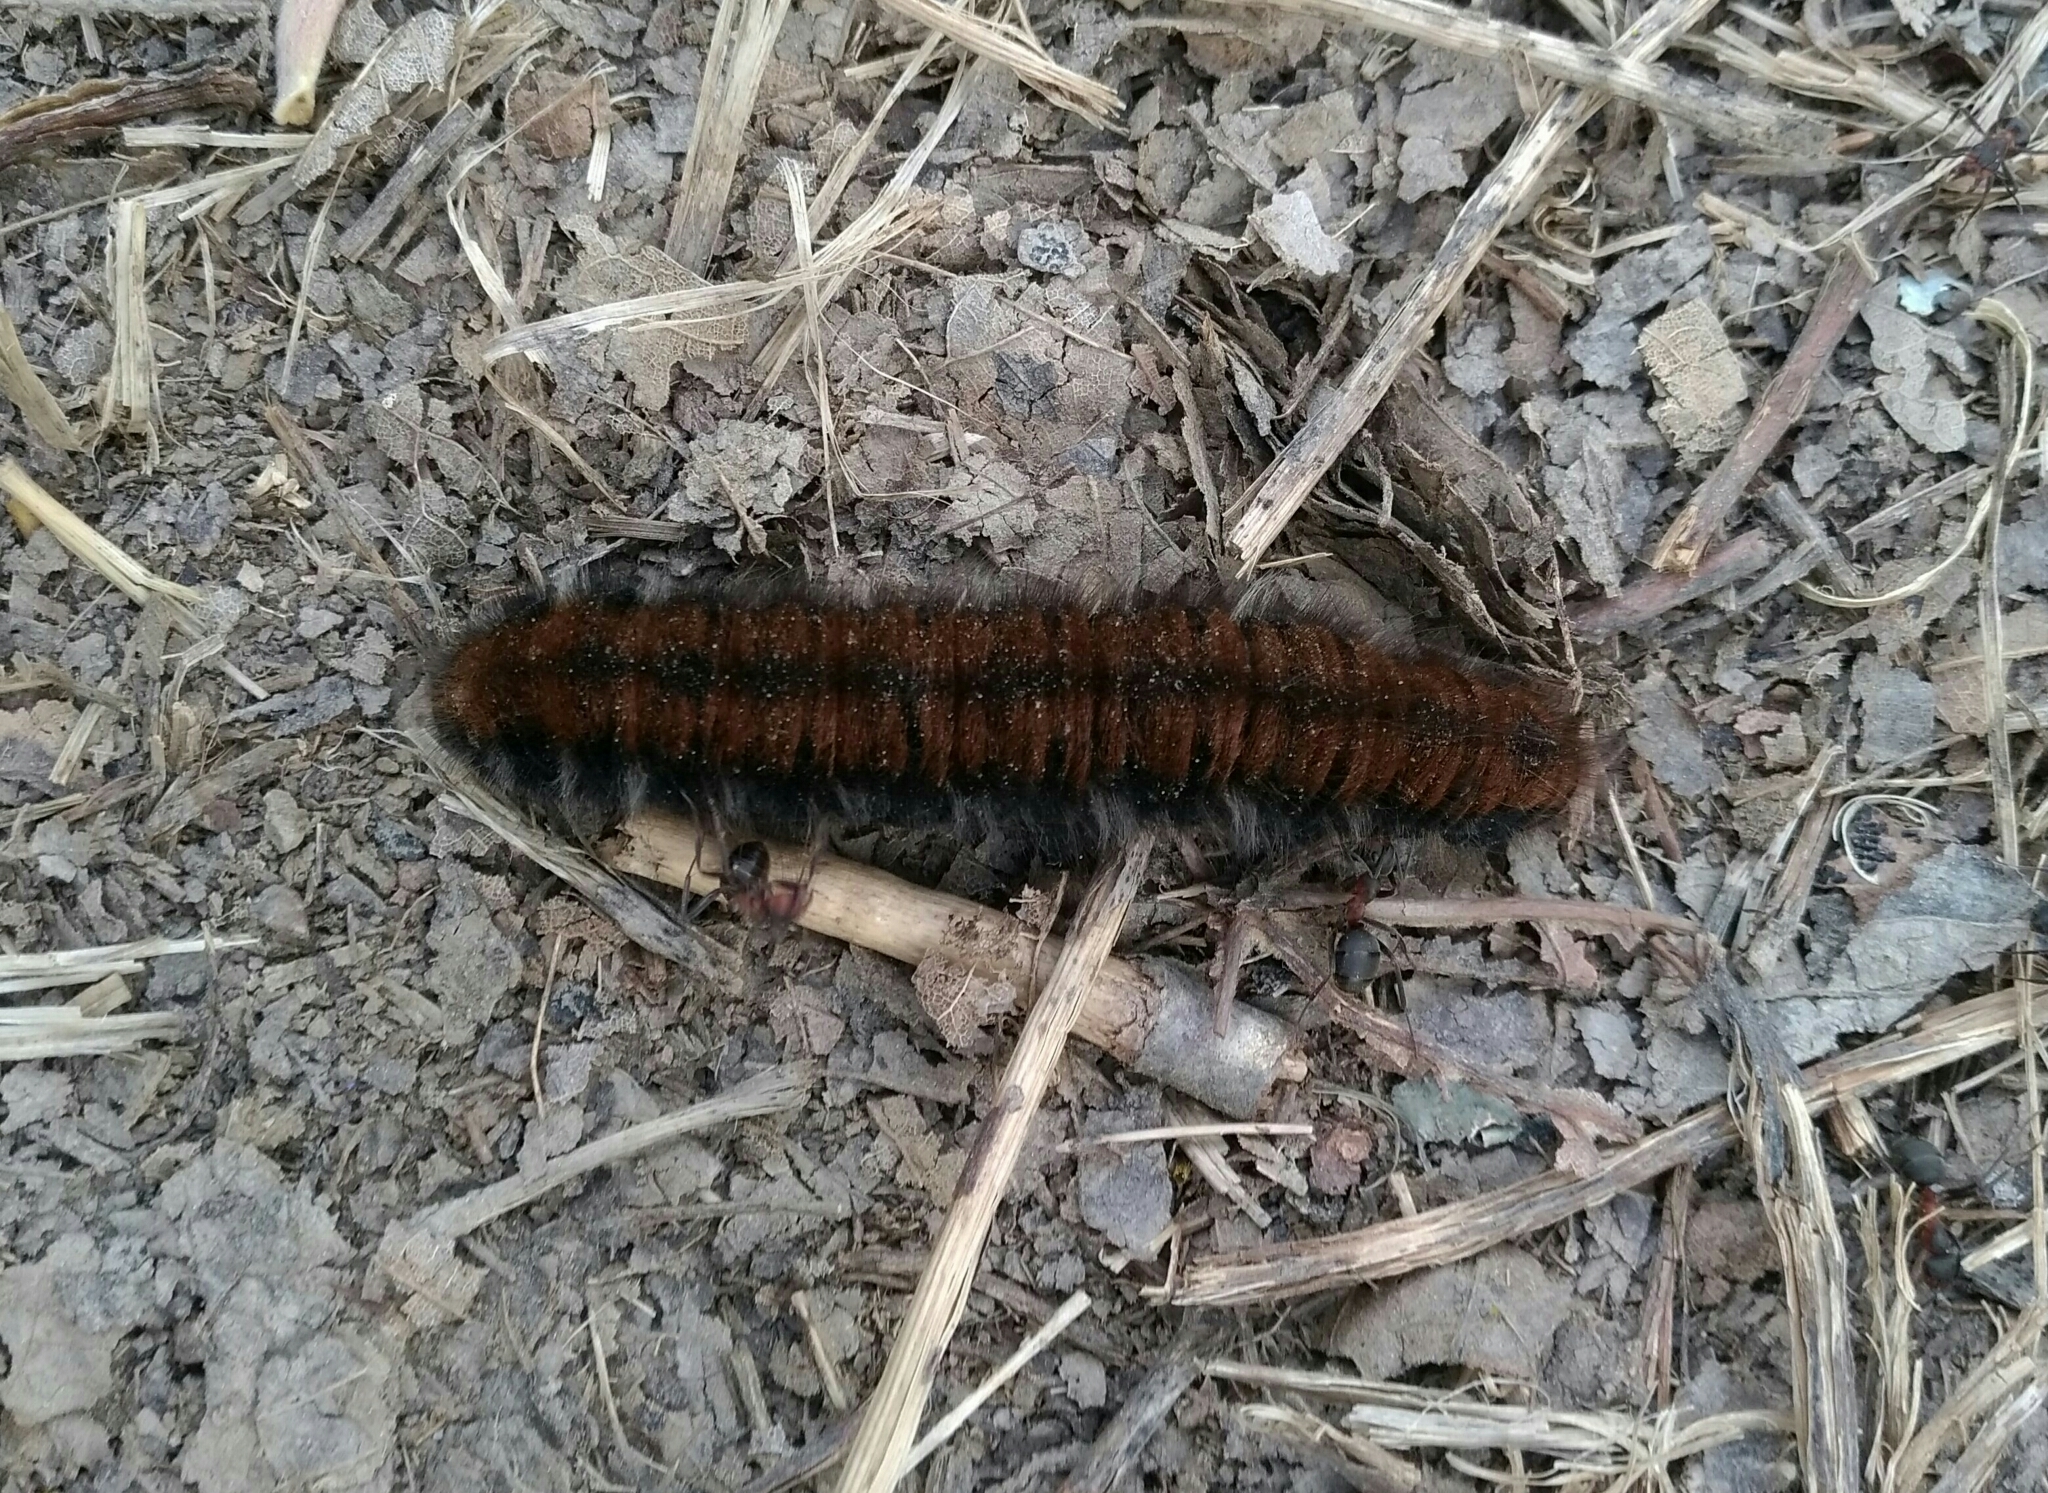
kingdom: Animalia
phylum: Arthropoda
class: Insecta
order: Lepidoptera
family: Lasiocampidae
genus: Macrothylacia
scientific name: Macrothylacia rubi
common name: Fox moth
